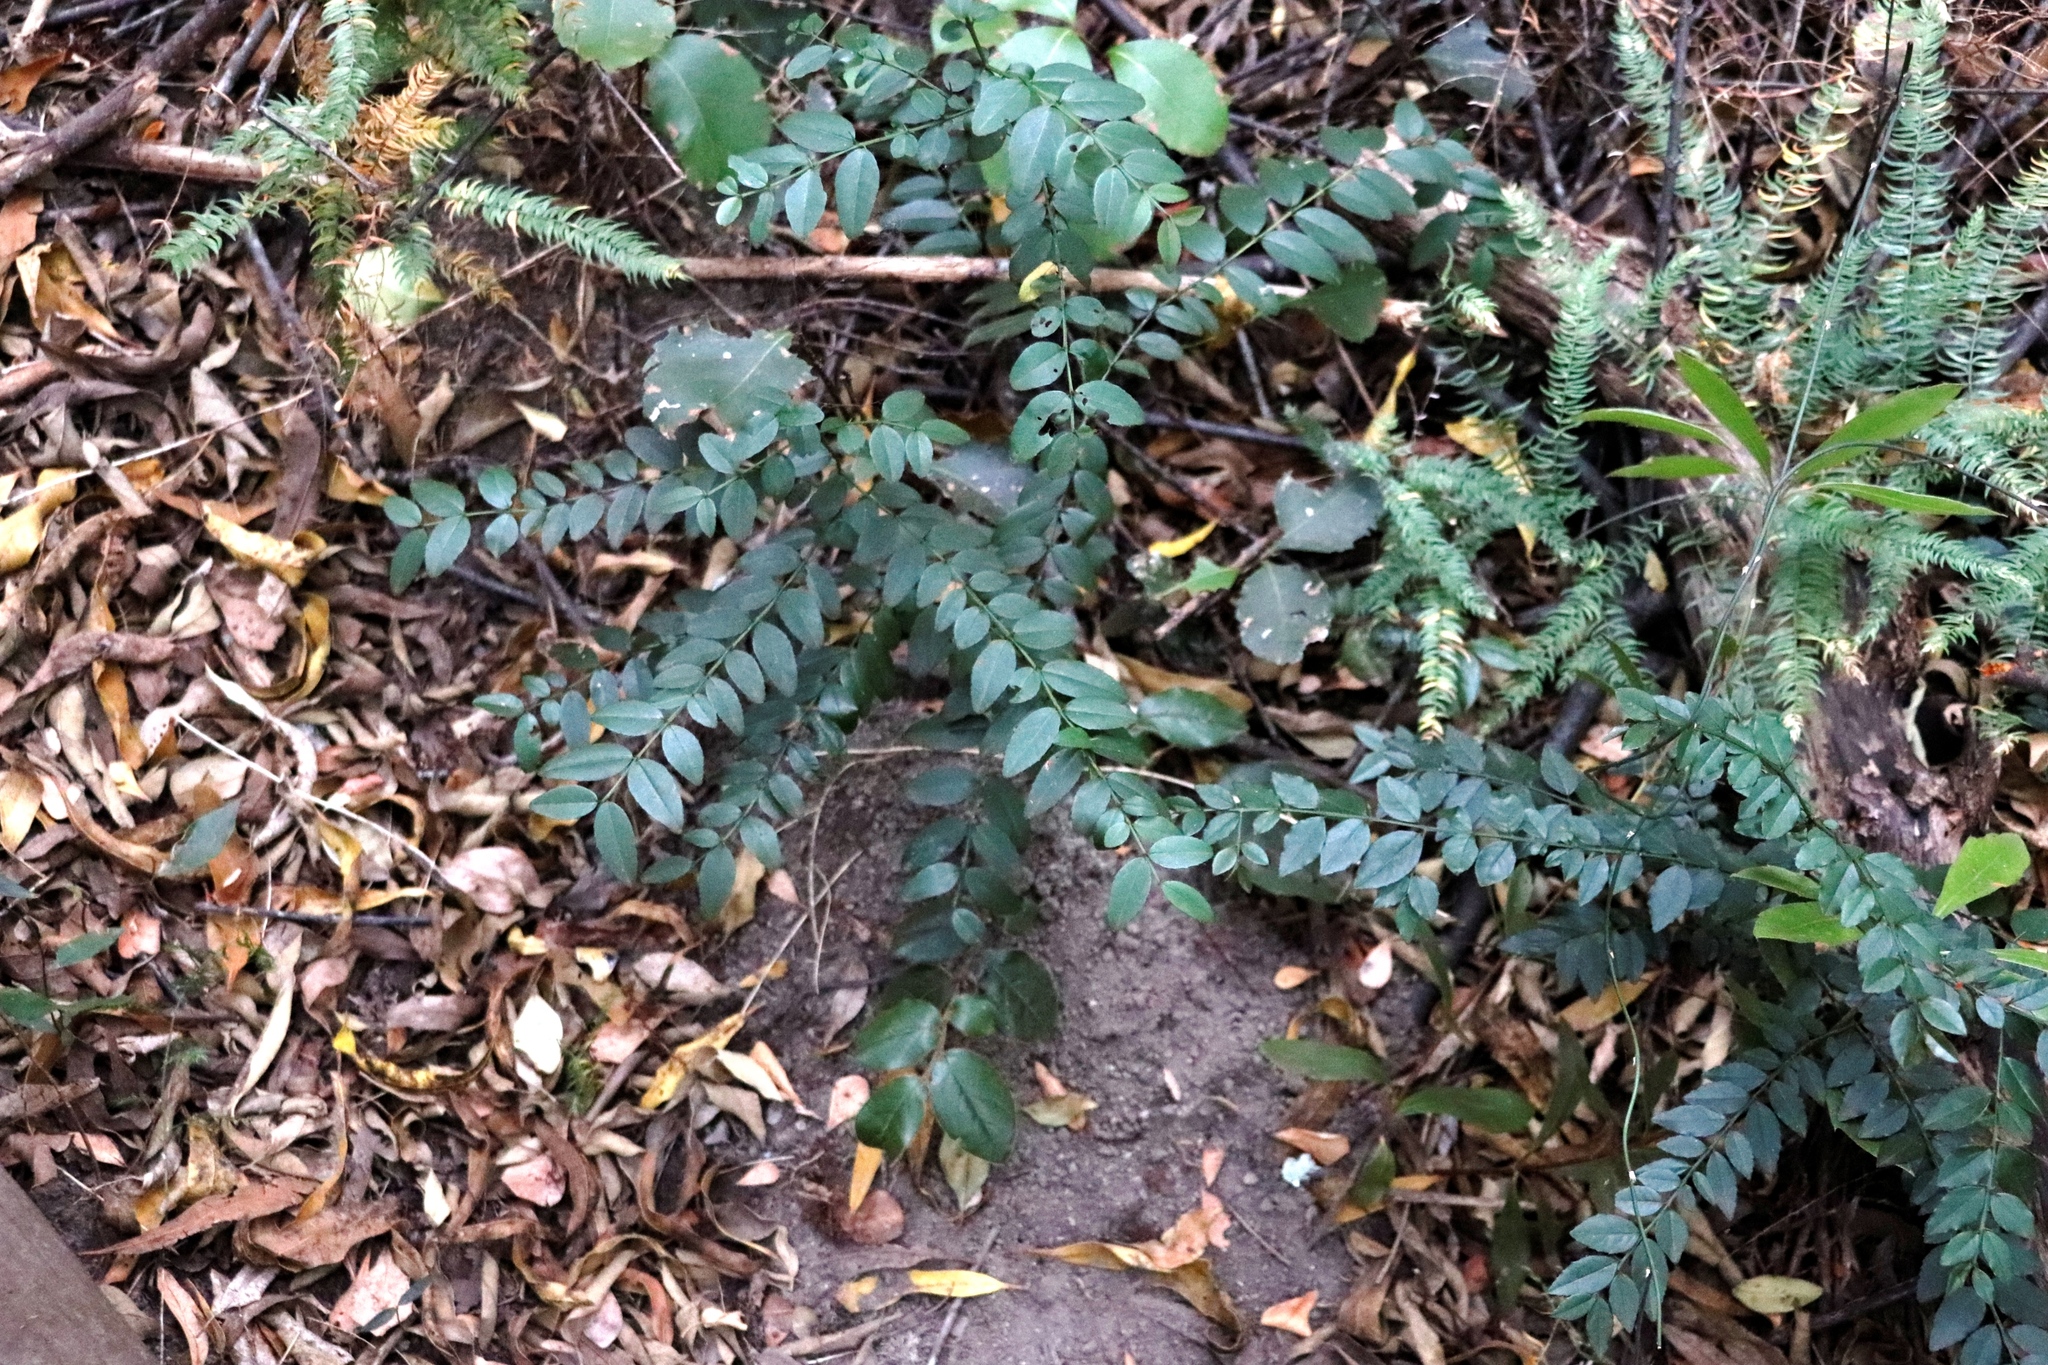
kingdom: Plantae
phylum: Tracheophyta
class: Magnoliopsida
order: Rosales
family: Rhamnaceae
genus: Scutia
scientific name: Scutia myrtina
